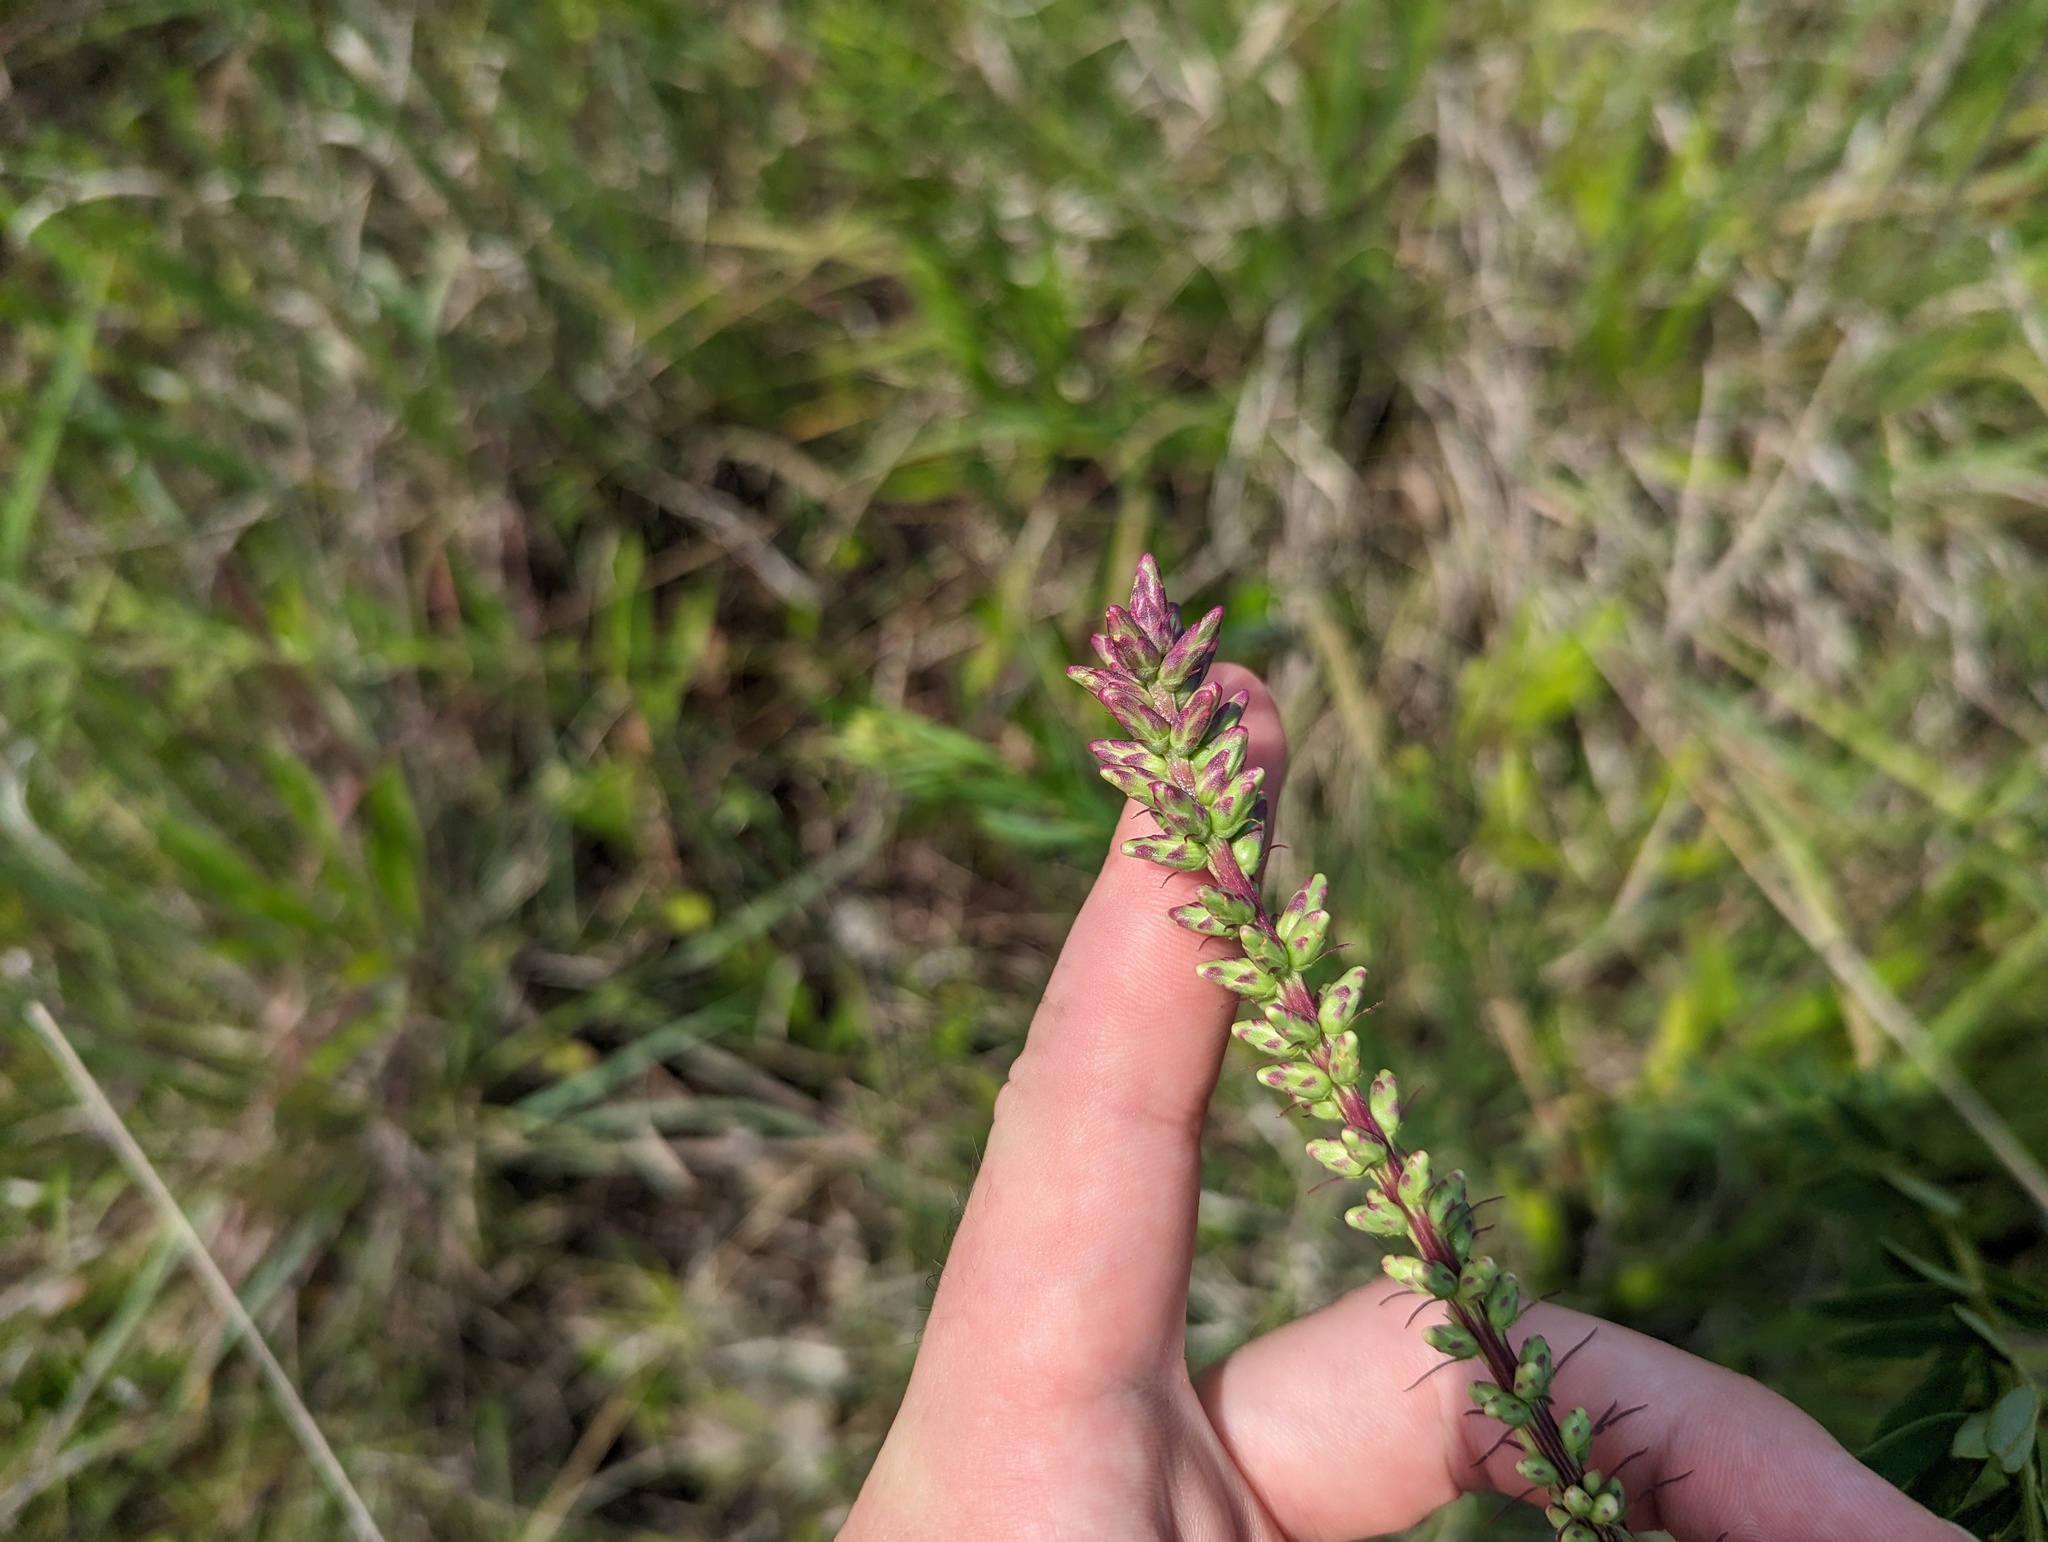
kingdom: Plantae
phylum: Tracheophyta
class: Magnoliopsida
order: Asterales
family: Asteraceae
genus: Liatris
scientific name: Liatris spicata
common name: Florist gayfeather
